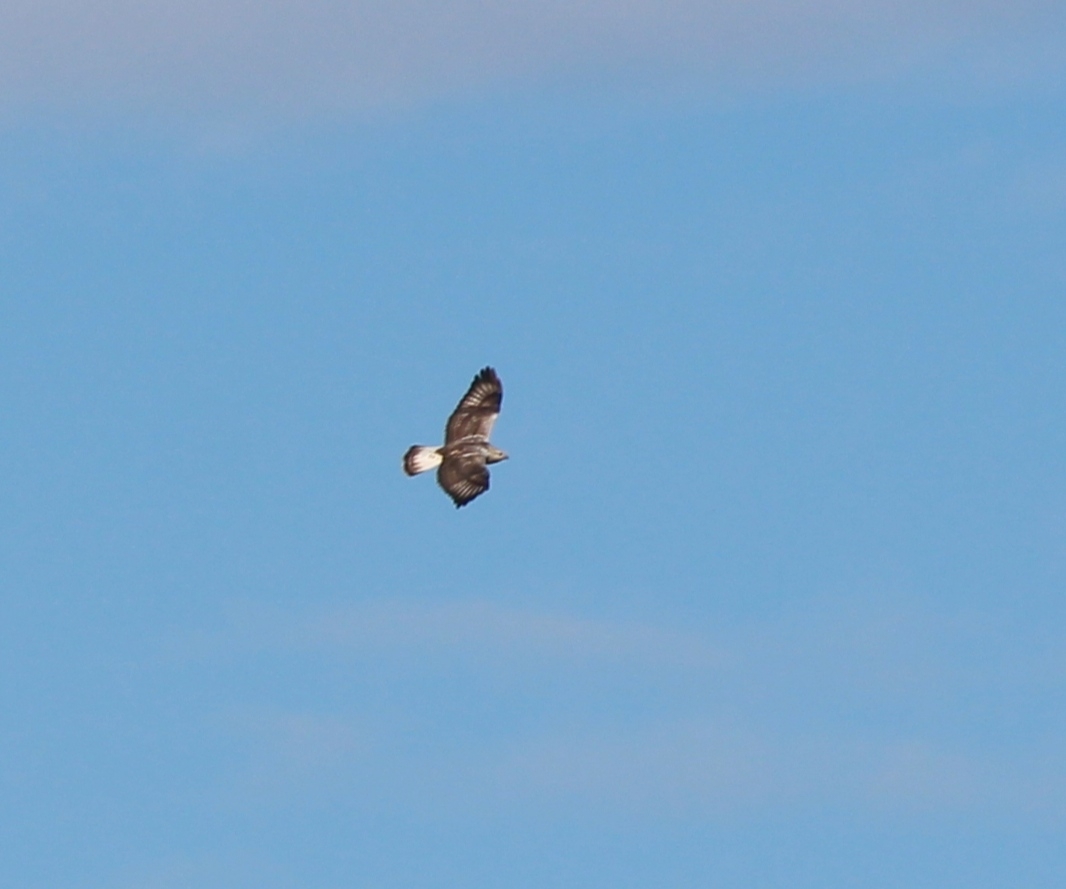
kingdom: Animalia
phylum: Chordata
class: Aves
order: Accipitriformes
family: Accipitridae
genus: Buteo
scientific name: Buteo lagopus
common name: Rough-legged buzzard
